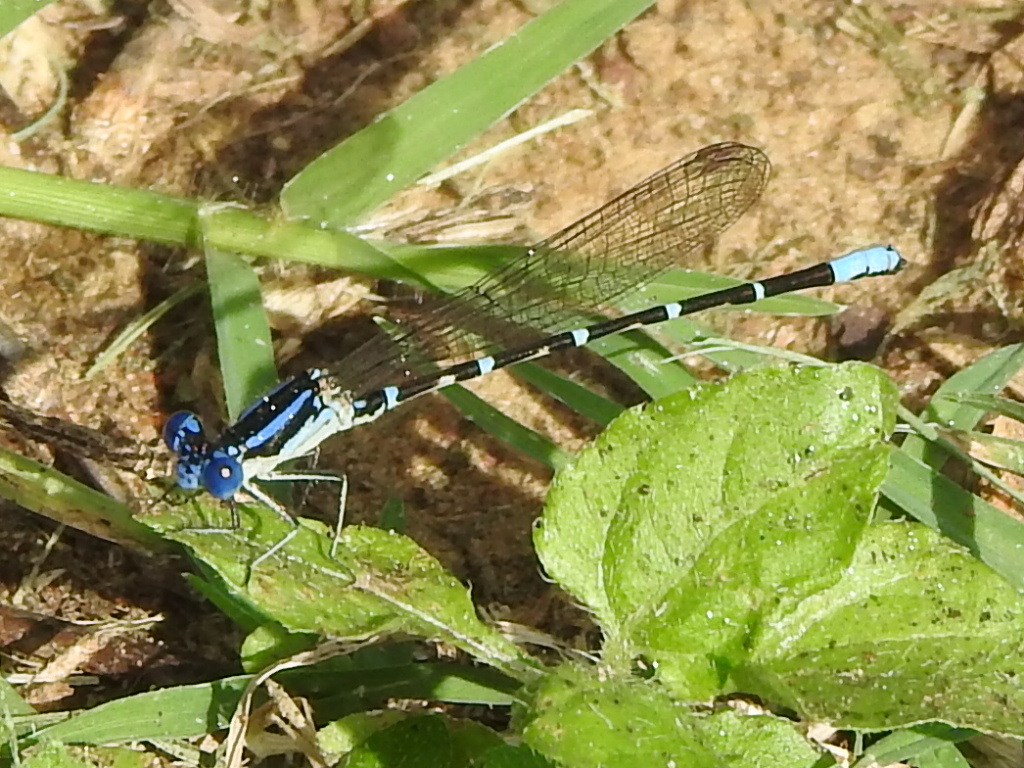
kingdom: Animalia
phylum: Arthropoda
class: Insecta
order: Odonata
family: Coenagrionidae
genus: Argia
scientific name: Argia sedula
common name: Blue-ringed dancer
